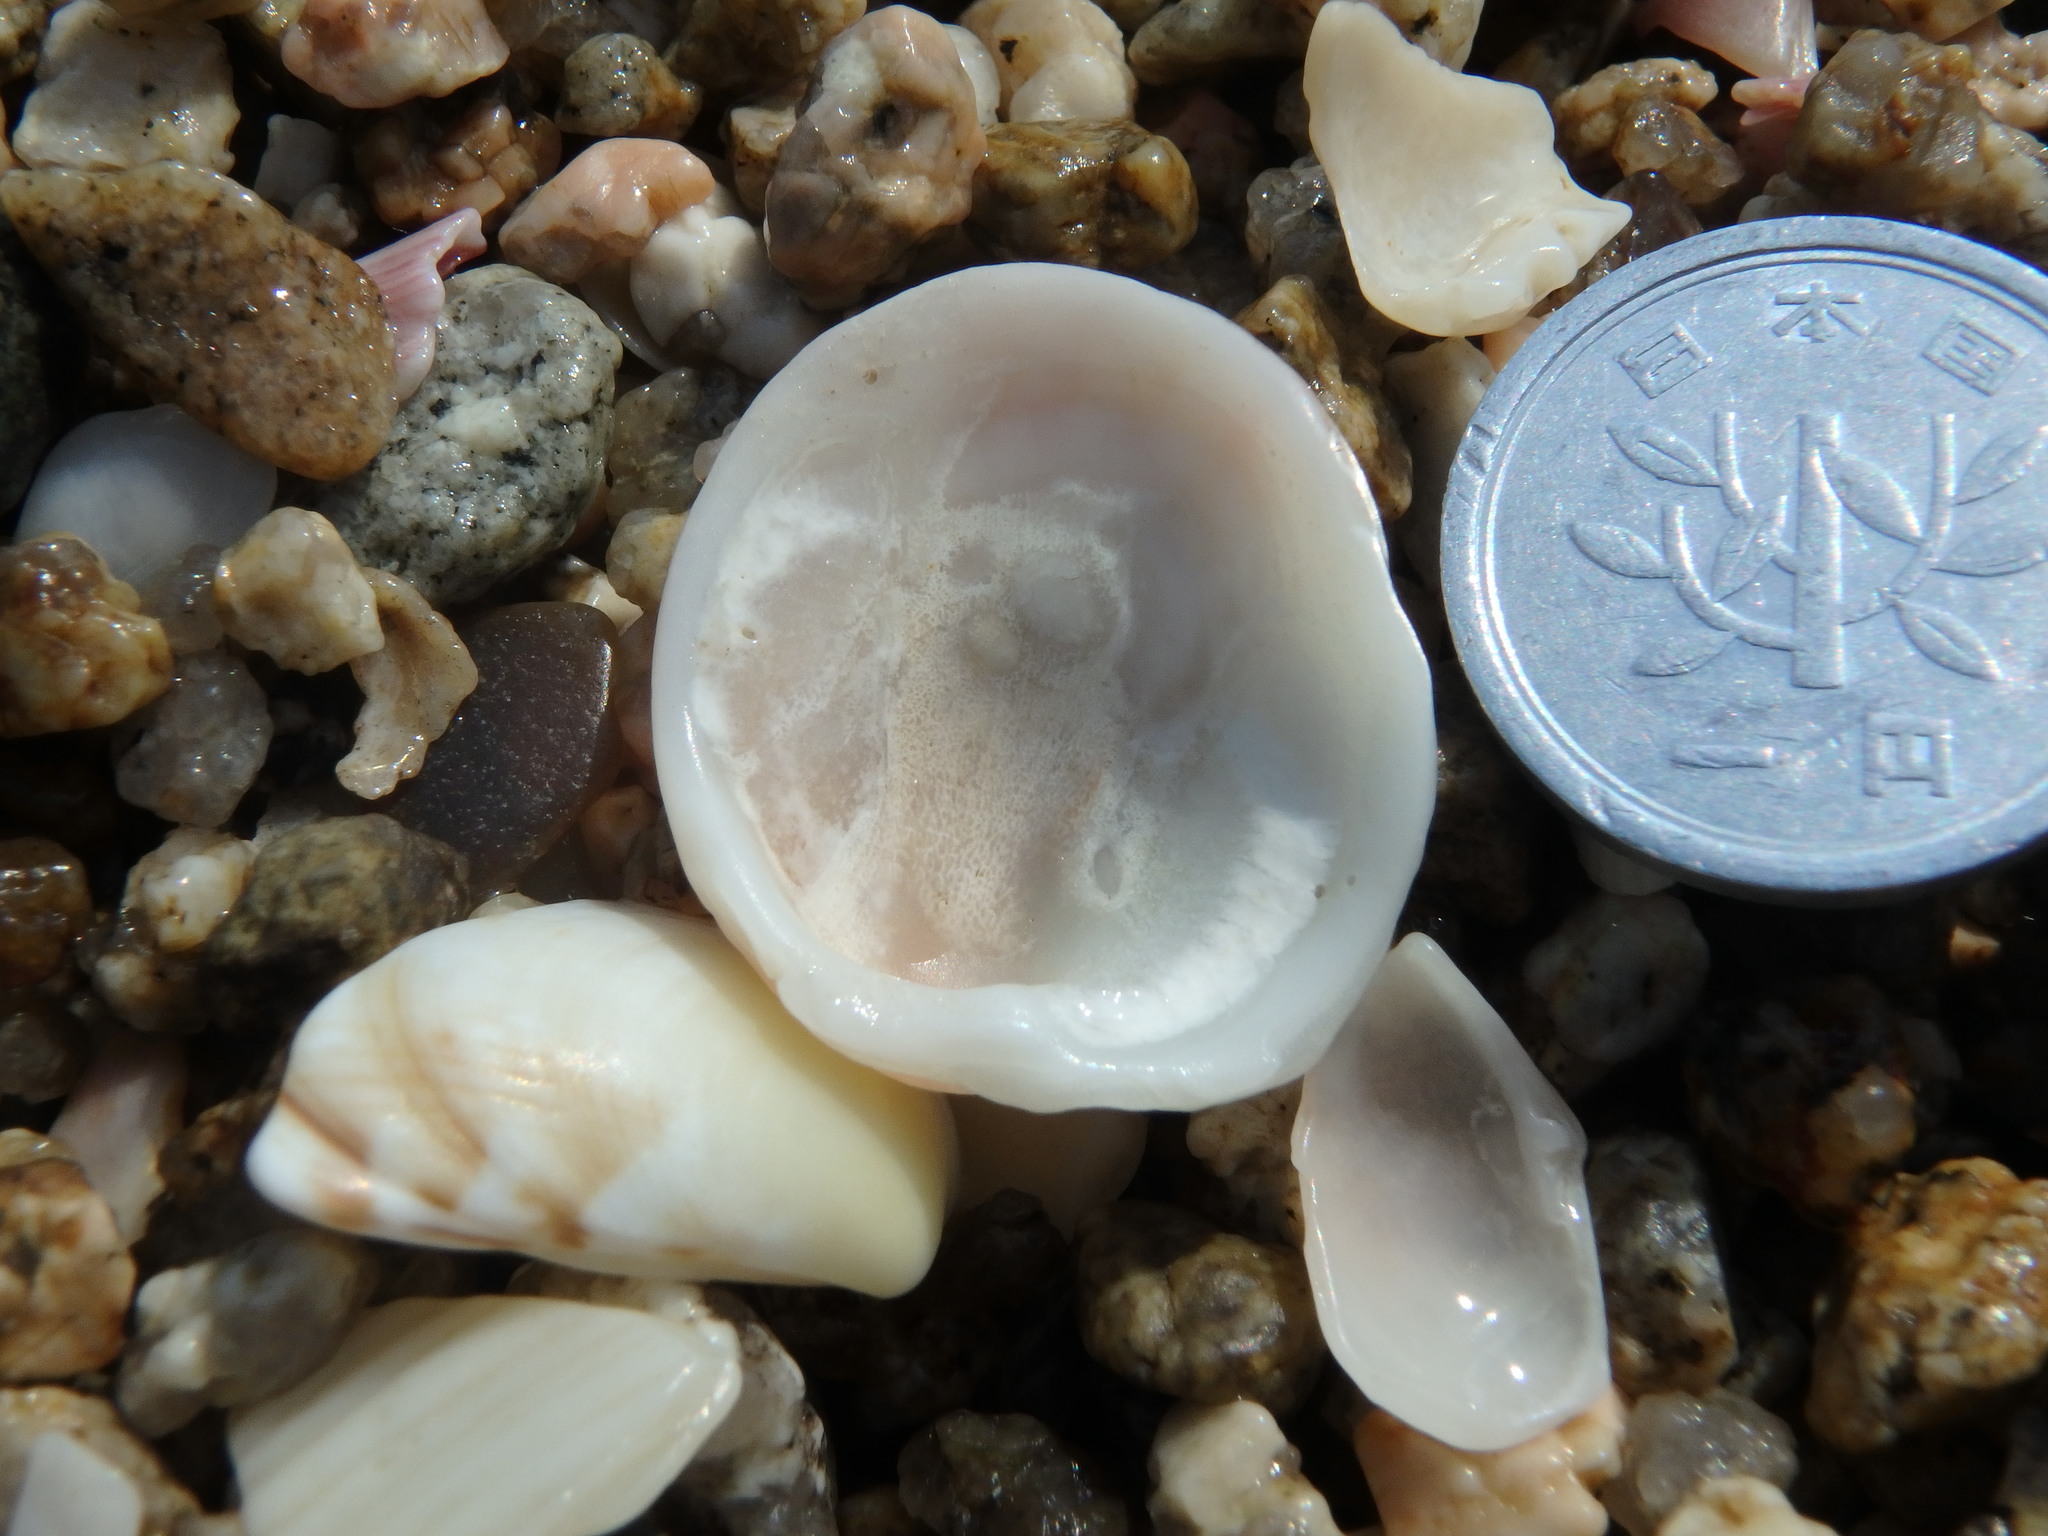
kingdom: Animalia
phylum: Mollusca
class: Bivalvia
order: Venerida
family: Chamidae
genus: Chama
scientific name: Chama ambigua
